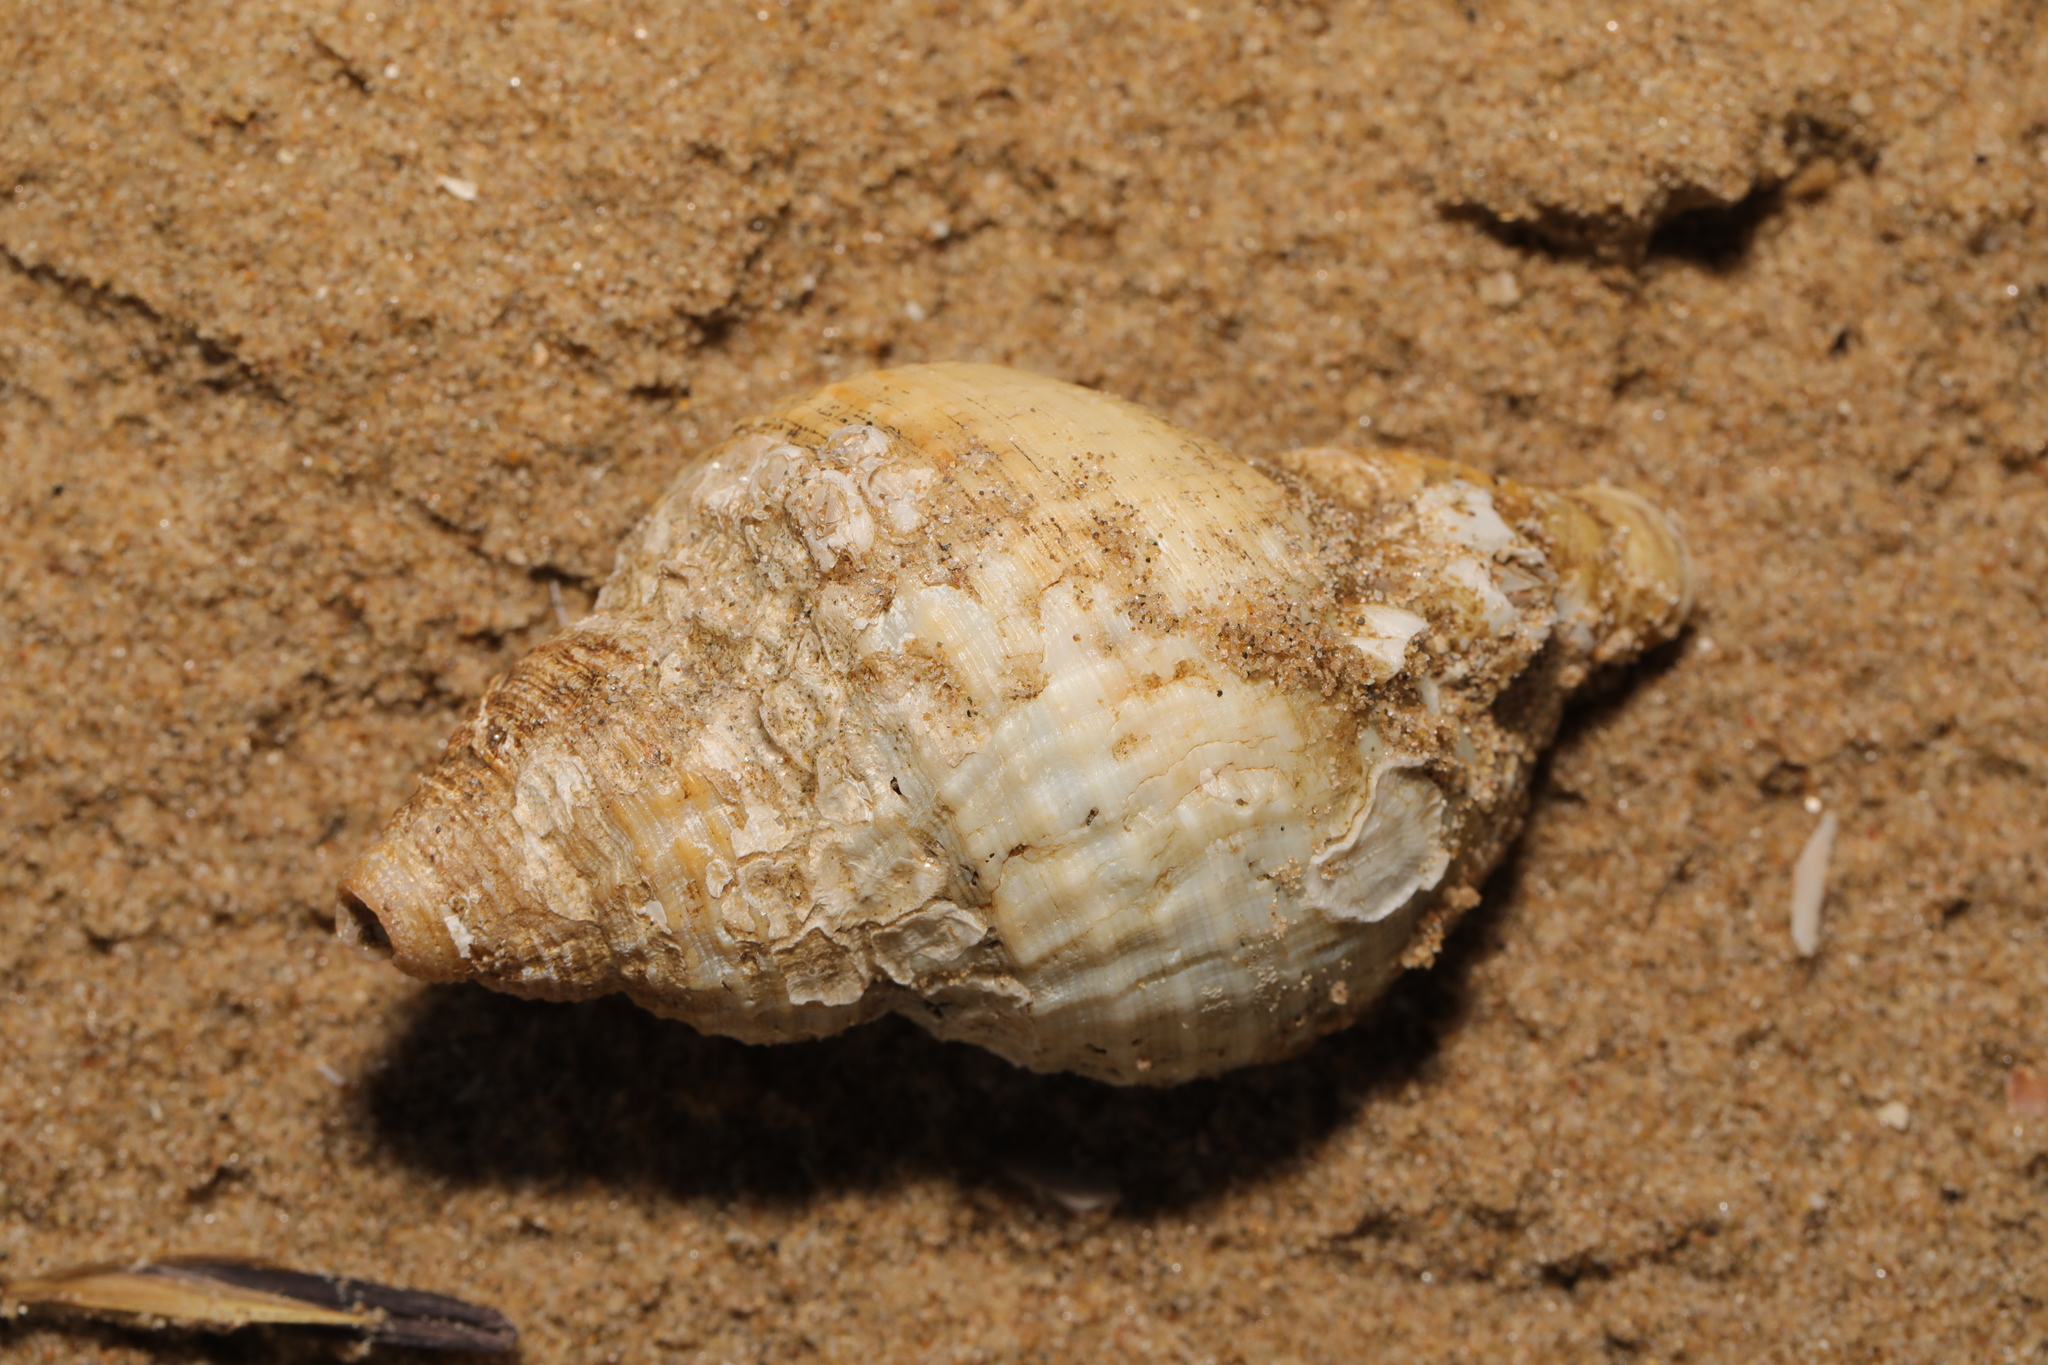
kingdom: Animalia
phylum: Mollusca
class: Gastropoda
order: Neogastropoda
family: Buccinidae
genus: Buccinum
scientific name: Buccinum undatum
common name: Common whelk
